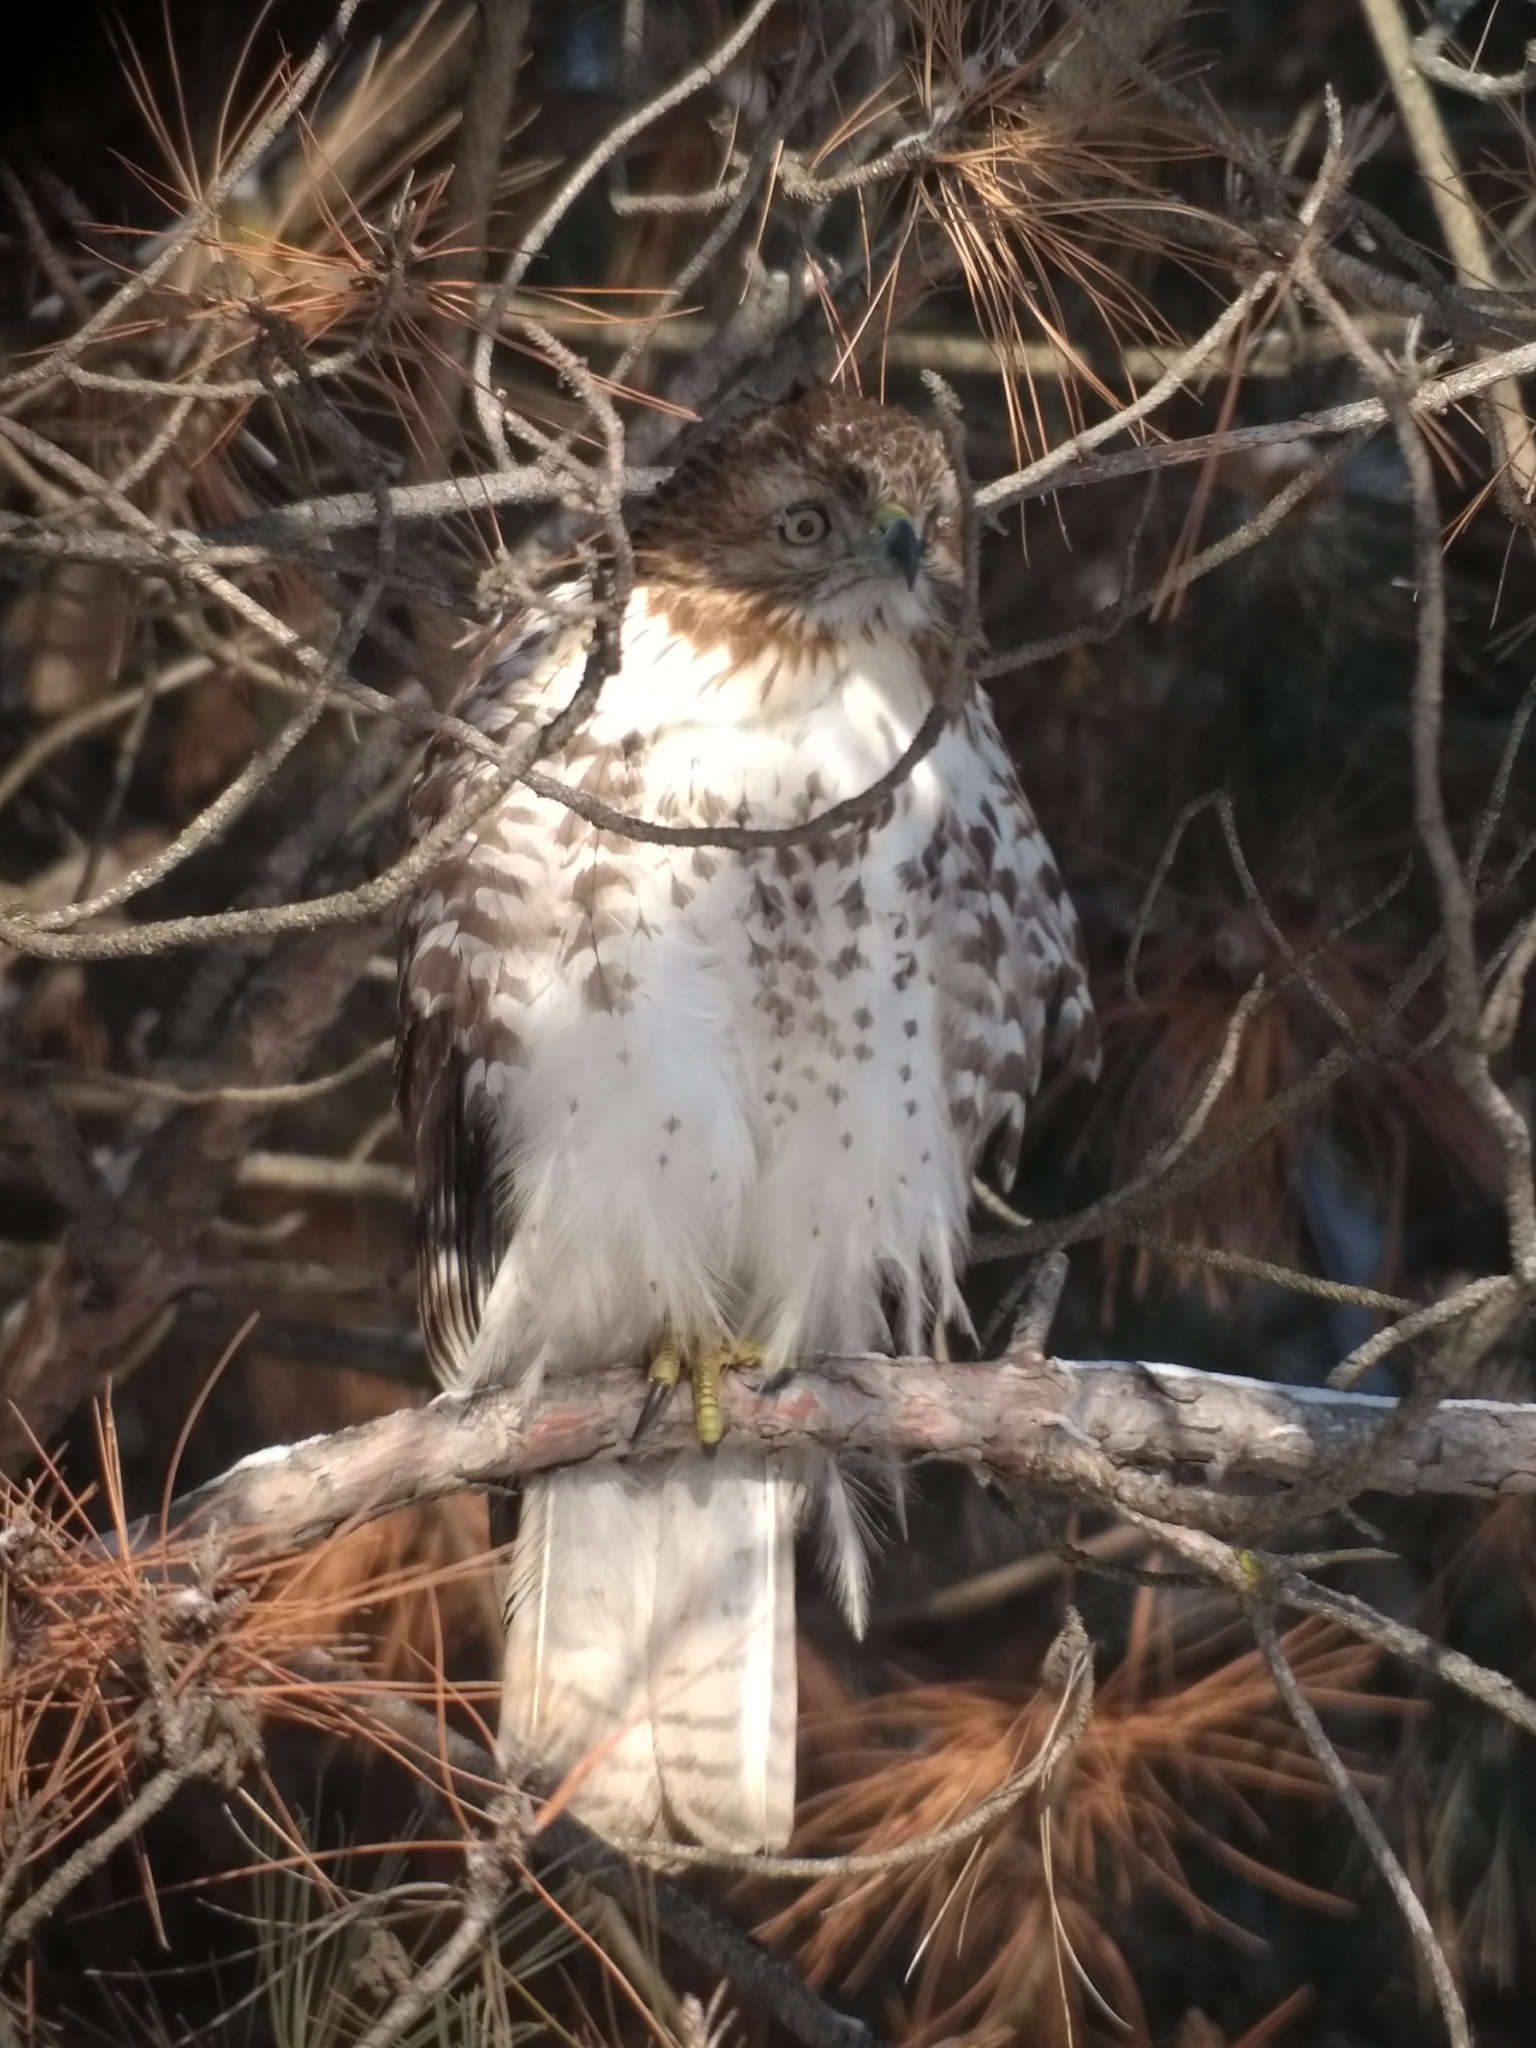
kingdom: Animalia
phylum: Chordata
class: Aves
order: Accipitriformes
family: Accipitridae
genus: Buteo
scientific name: Buteo jamaicensis
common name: Red-tailed hawk
